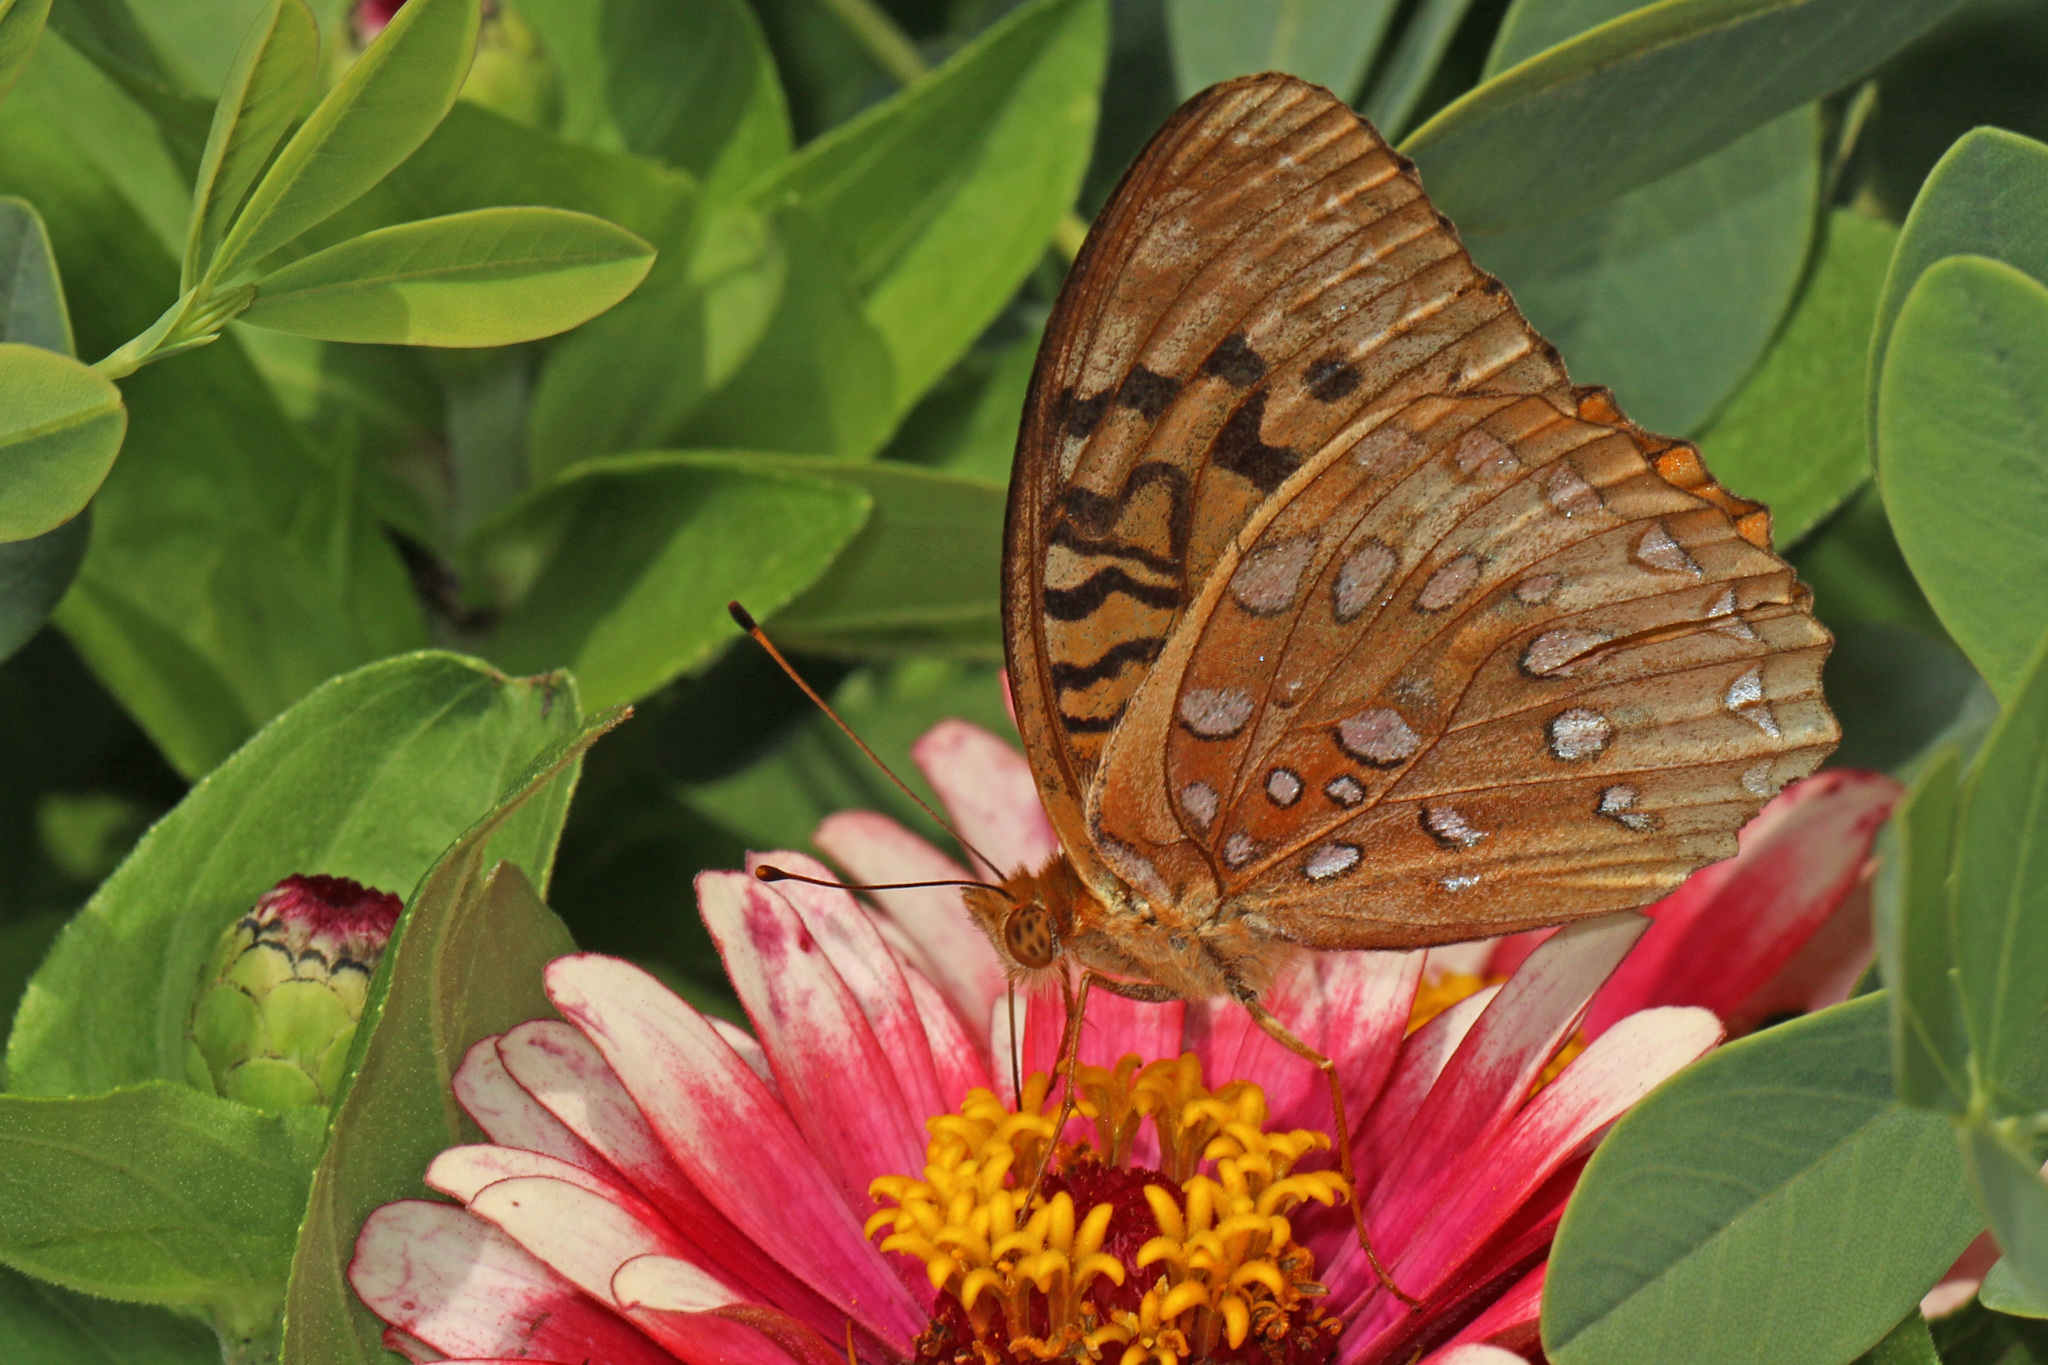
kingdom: Animalia
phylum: Arthropoda
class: Insecta
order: Lepidoptera
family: Nymphalidae
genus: Speyeria
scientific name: Speyeria cybele
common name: Great spangled fritillary
